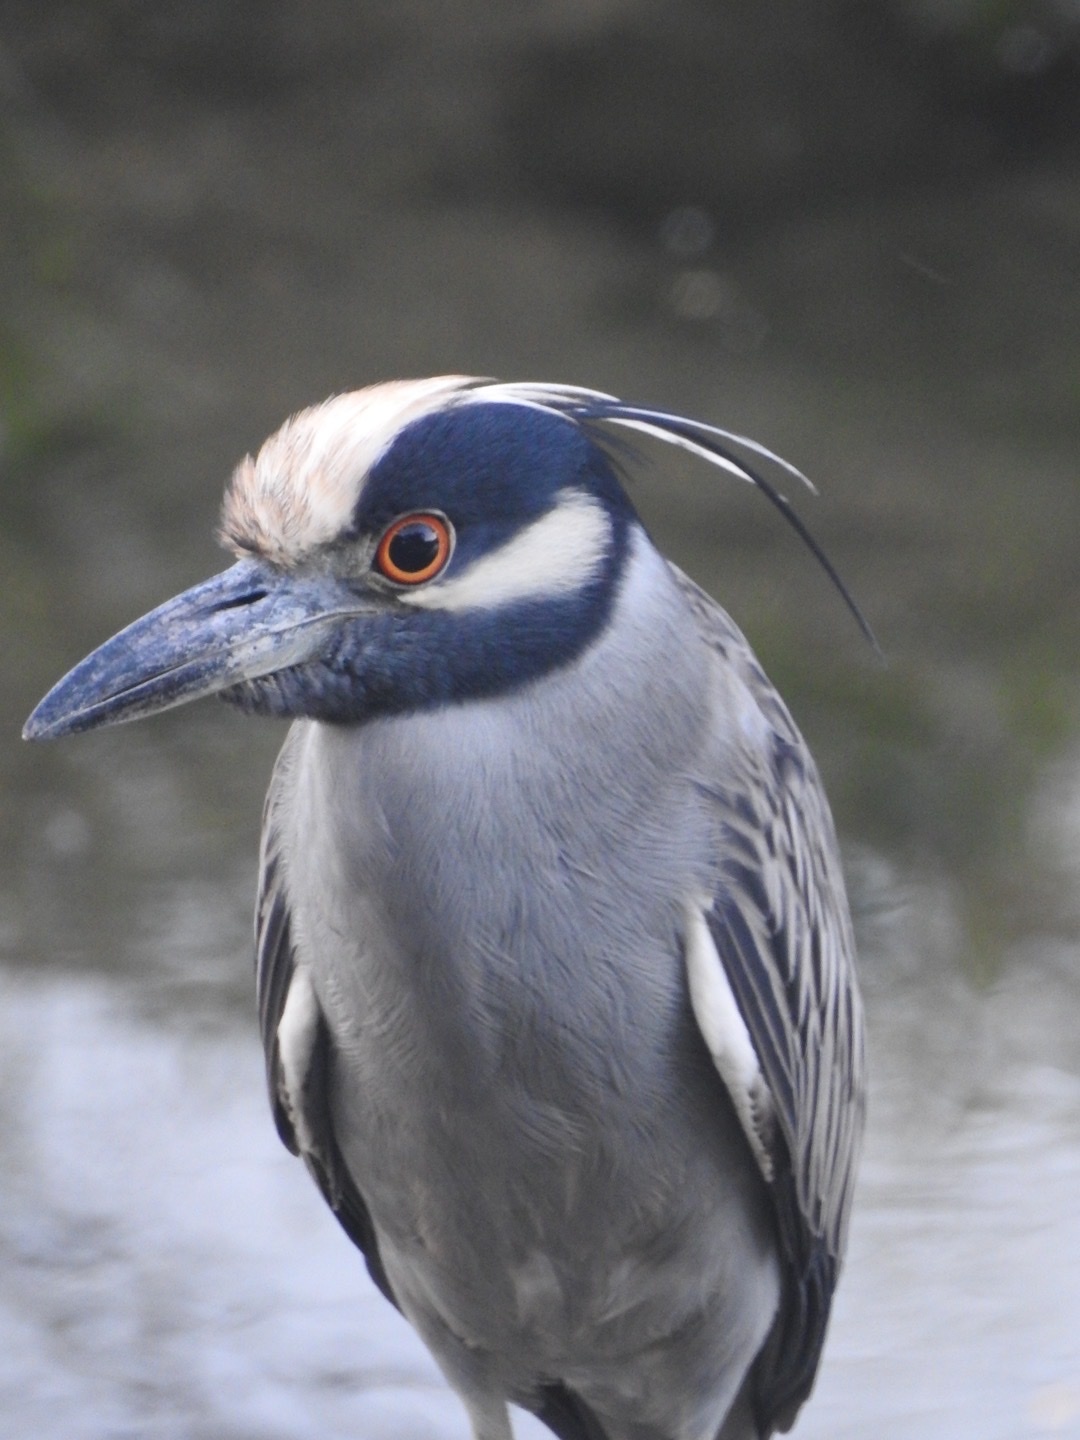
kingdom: Animalia
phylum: Chordata
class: Aves
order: Pelecaniformes
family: Ardeidae
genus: Nyctanassa
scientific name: Nyctanassa violacea
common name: Yellow-crowned night heron
